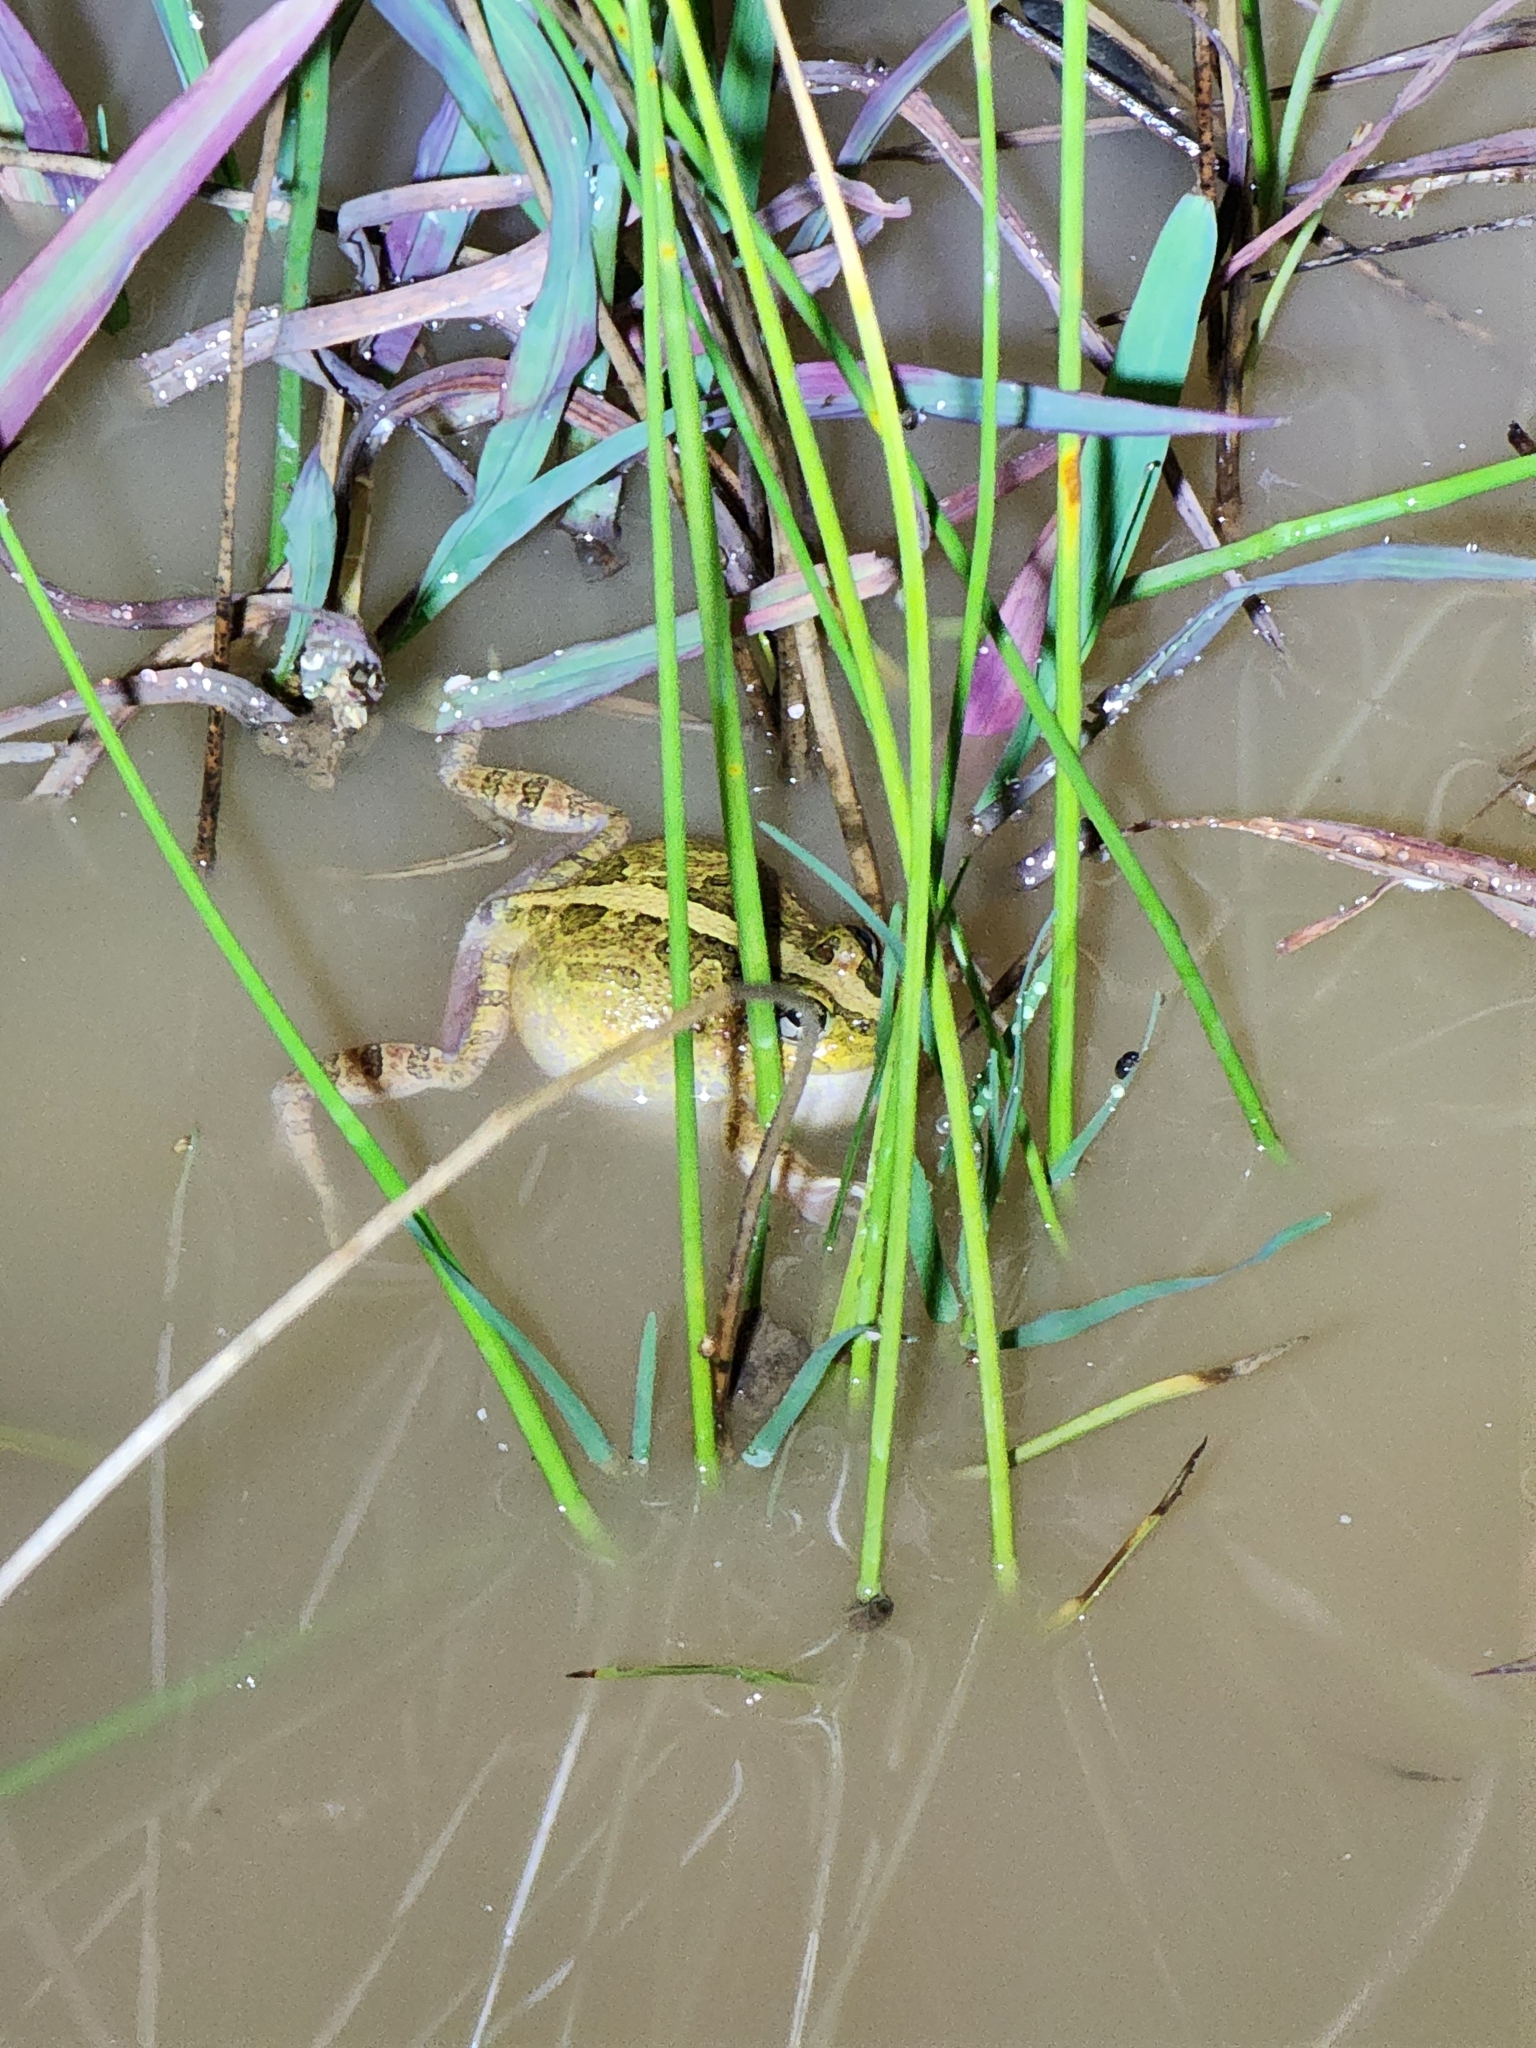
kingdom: Animalia
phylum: Chordata
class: Amphibia
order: Anura
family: Limnodynastidae
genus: Platyplectrum
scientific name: Platyplectrum ornatum
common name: Ornate burrowing frog
